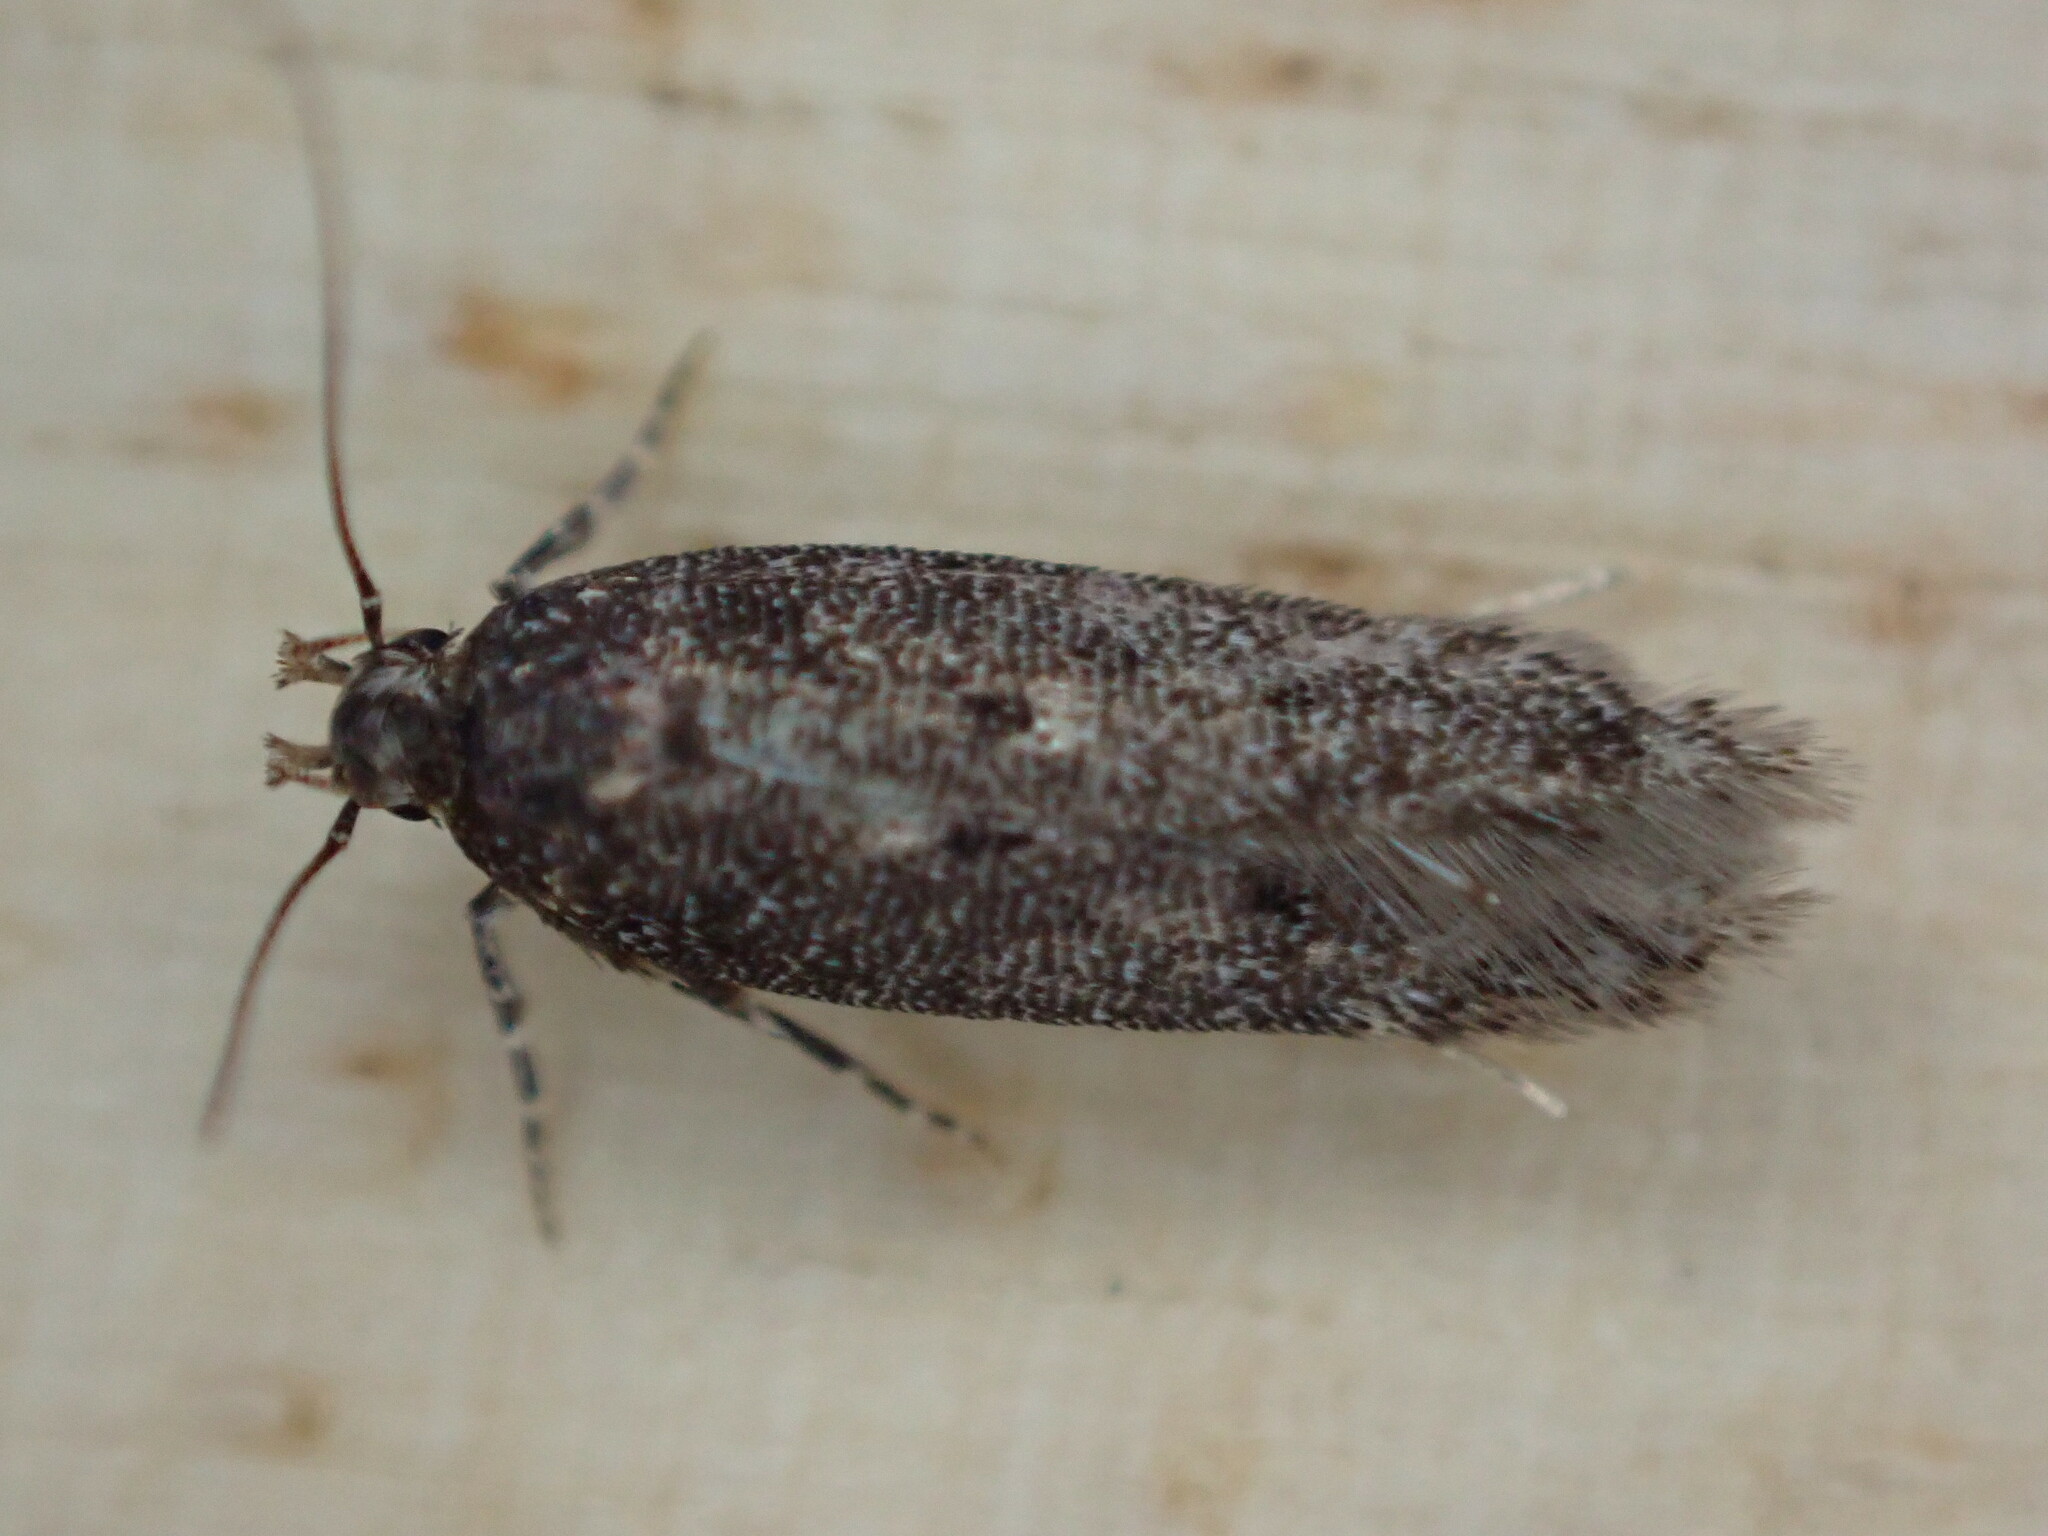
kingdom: Animalia
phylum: Arthropoda
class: Insecta
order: Lepidoptera
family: Gelechiidae
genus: Bryotropha
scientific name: Bryotropha affinis
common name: Dark groundling
